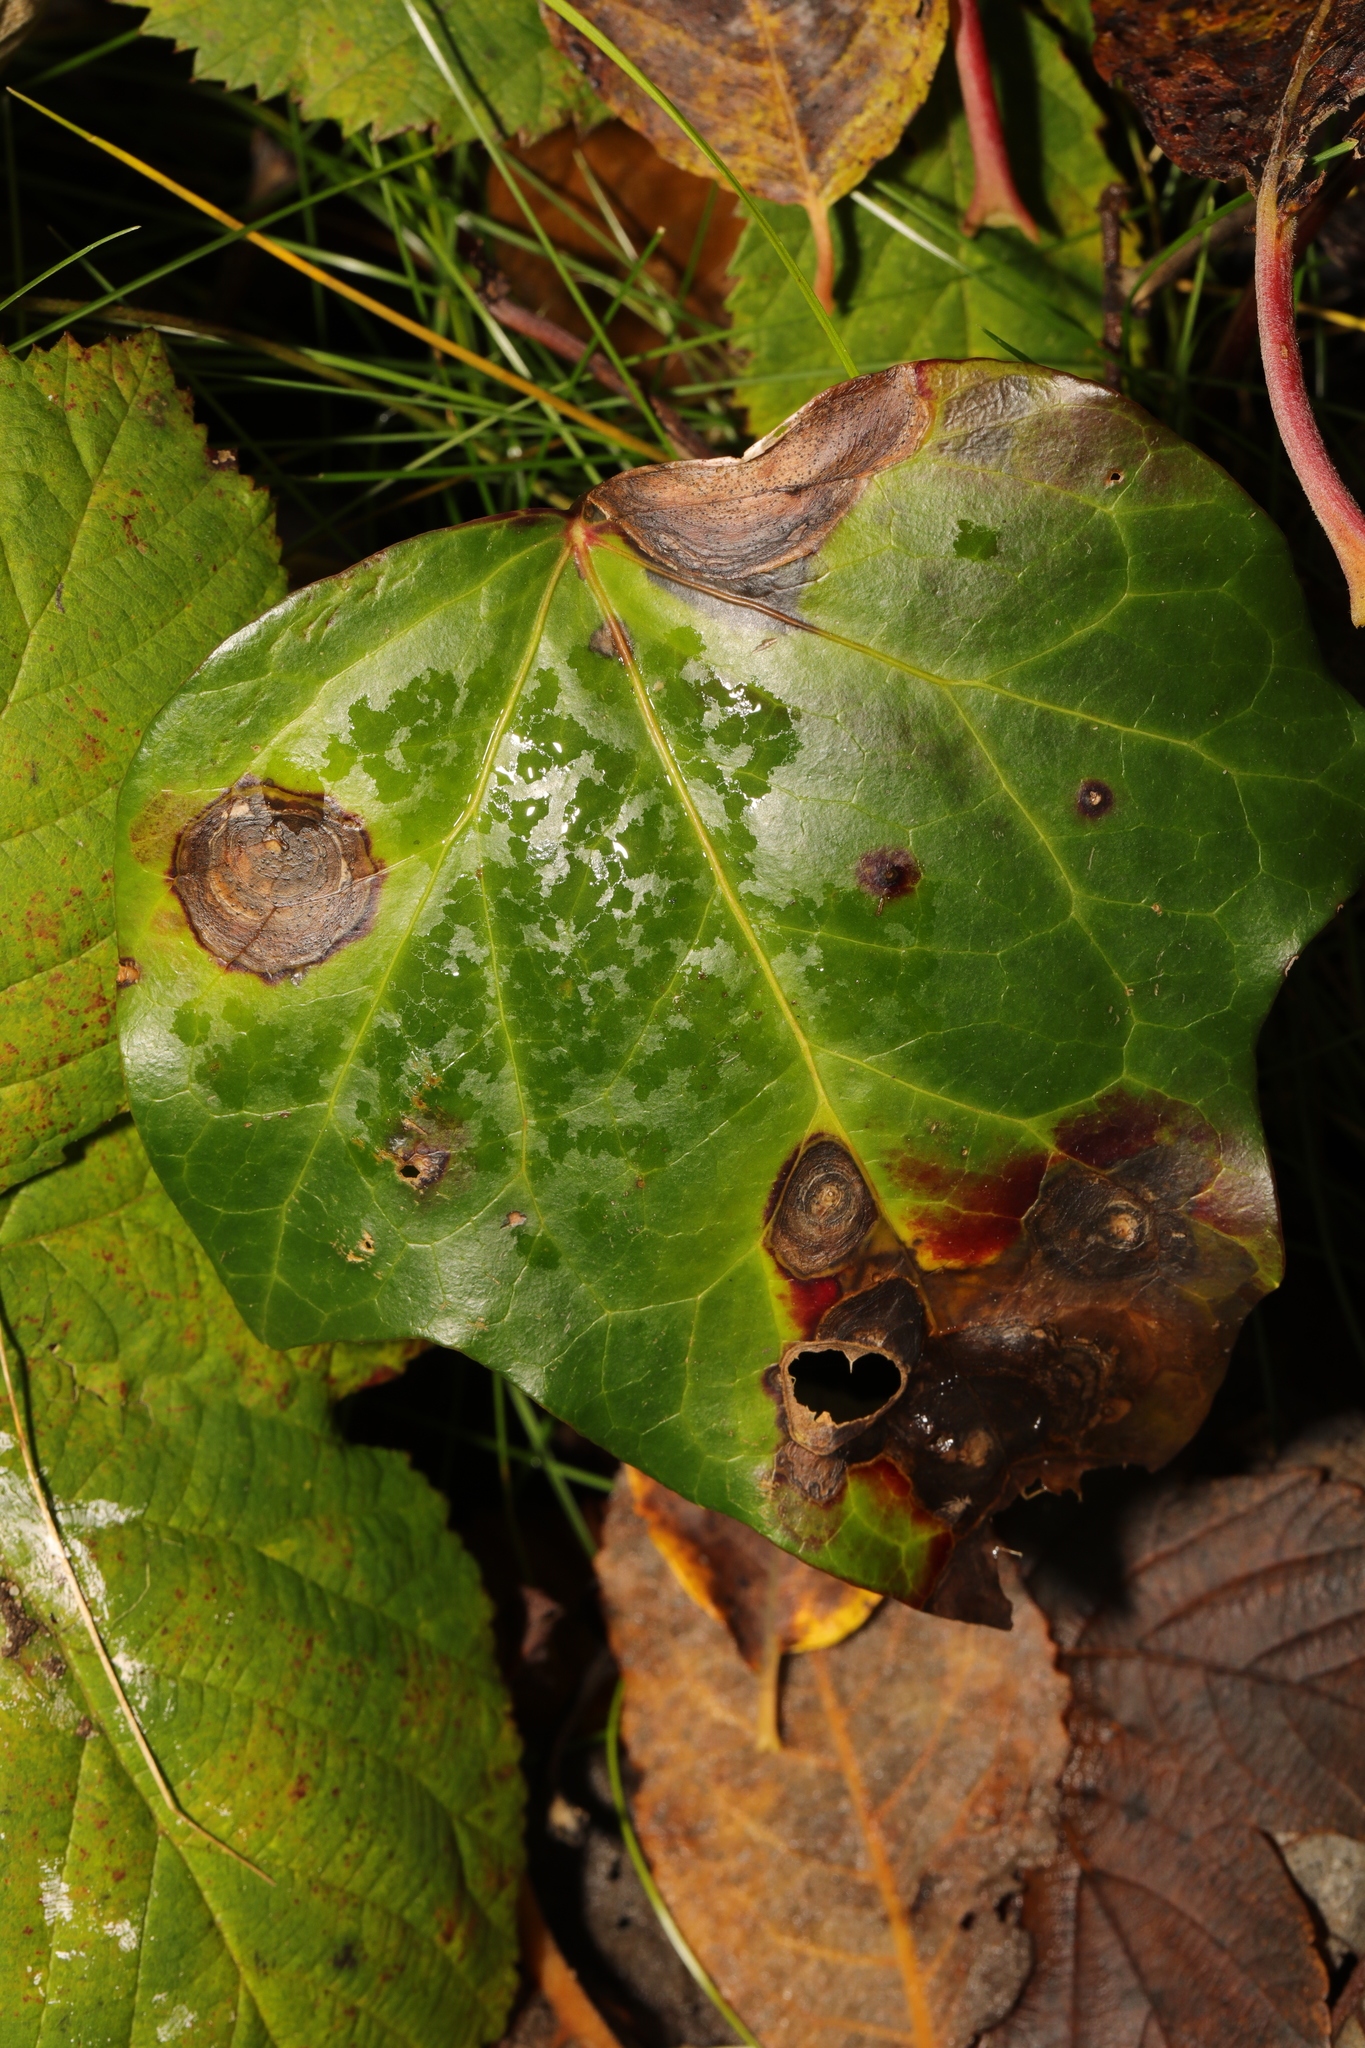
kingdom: Fungi
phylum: Ascomycota
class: Dothideomycetes
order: Pleosporales
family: Didymellaceae
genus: Boeremia
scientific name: Boeremia hedericola
